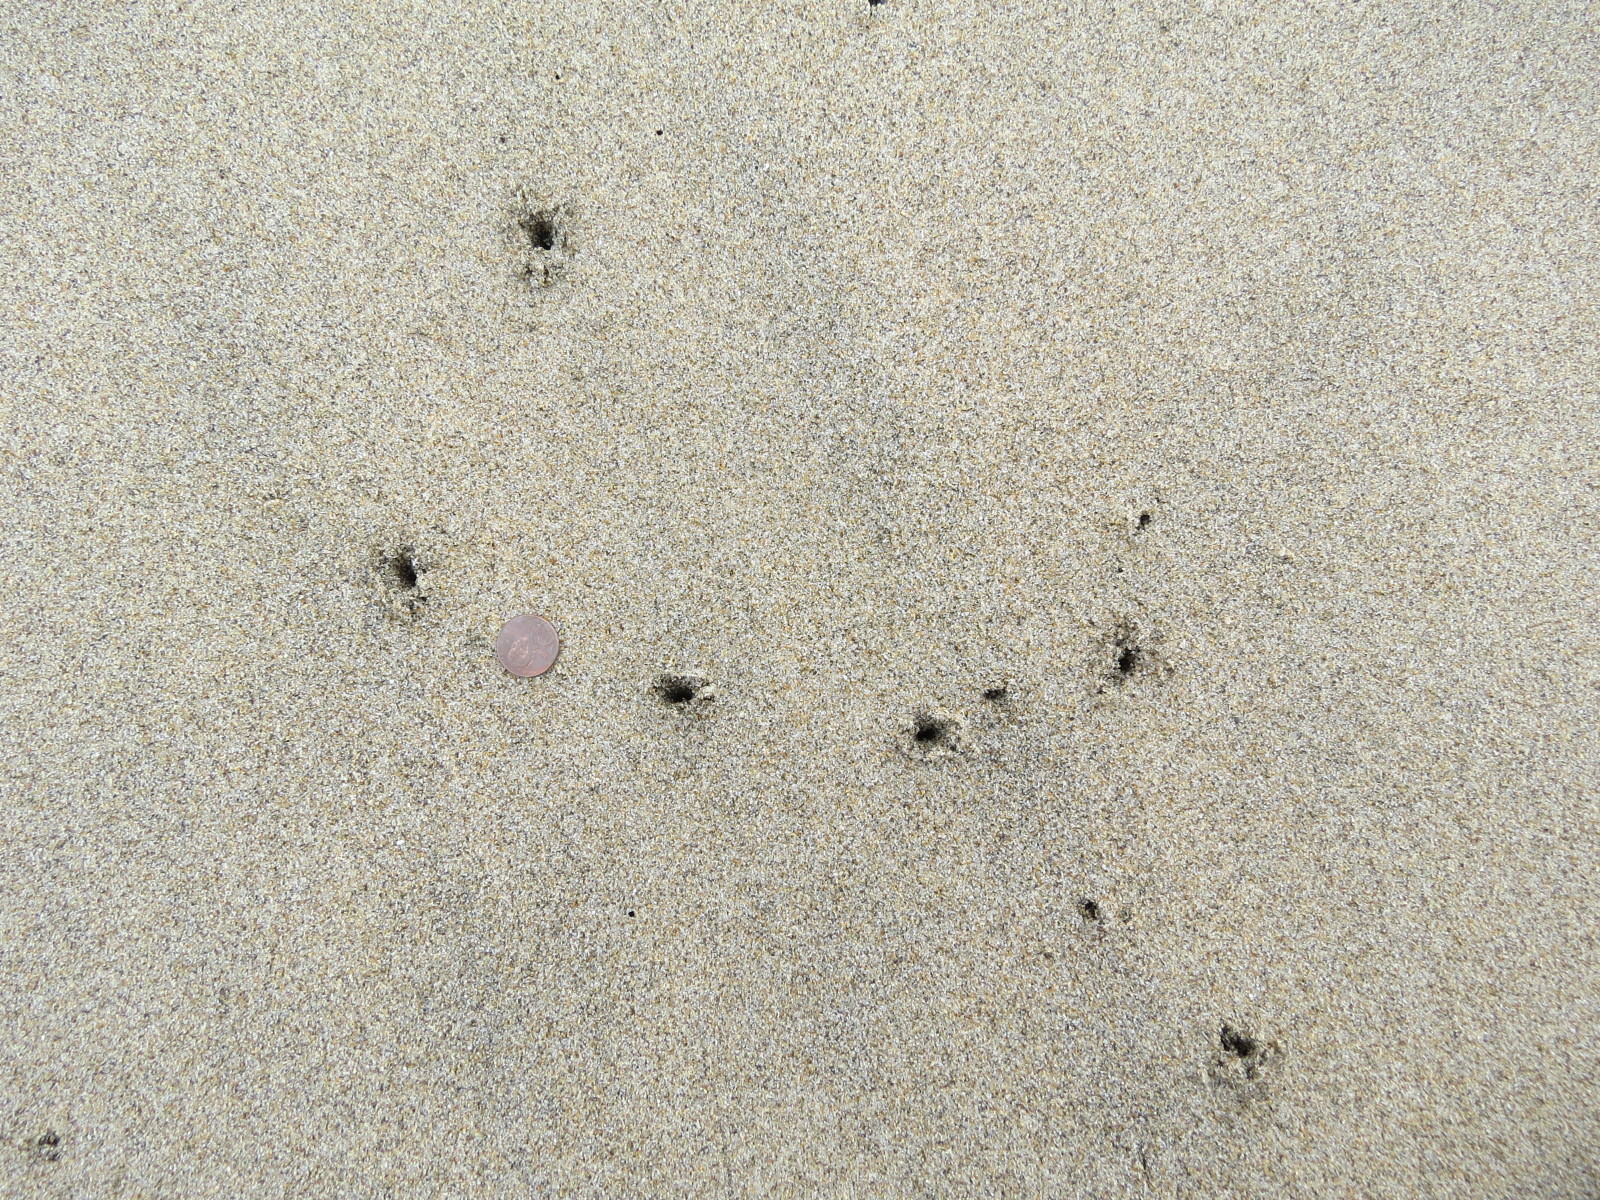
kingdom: Animalia
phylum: Chordata
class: Aves
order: Charadriiformes
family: Scolopacidae
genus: Calidris
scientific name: Calidris alba
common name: Sanderling
